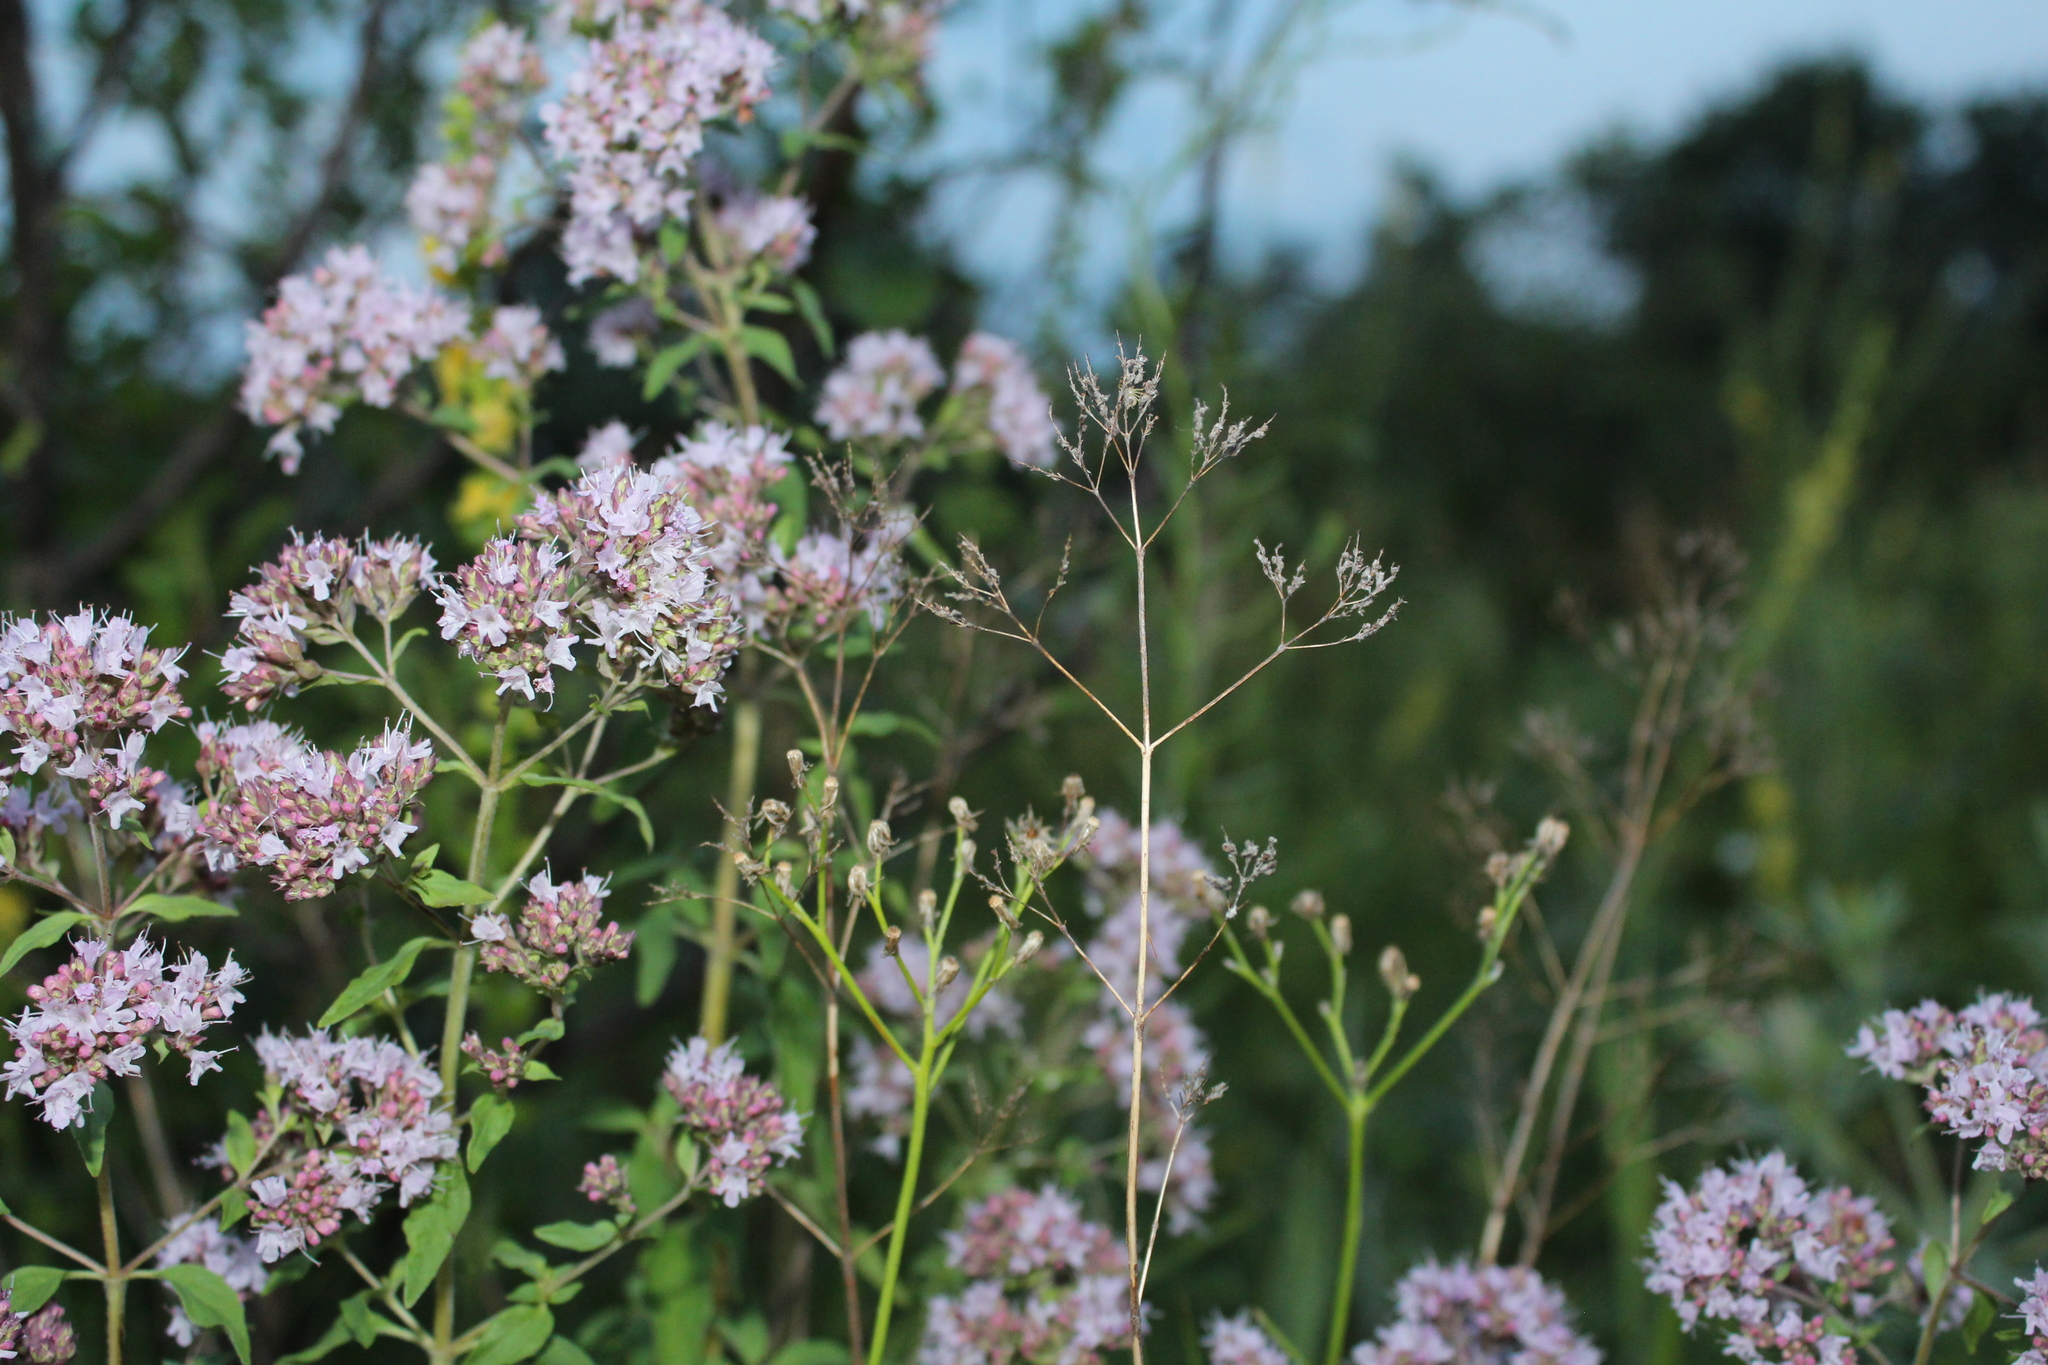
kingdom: Plantae
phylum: Tracheophyta
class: Magnoliopsida
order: Lamiales
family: Lamiaceae
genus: Origanum
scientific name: Origanum vulgare
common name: Wild marjoram
